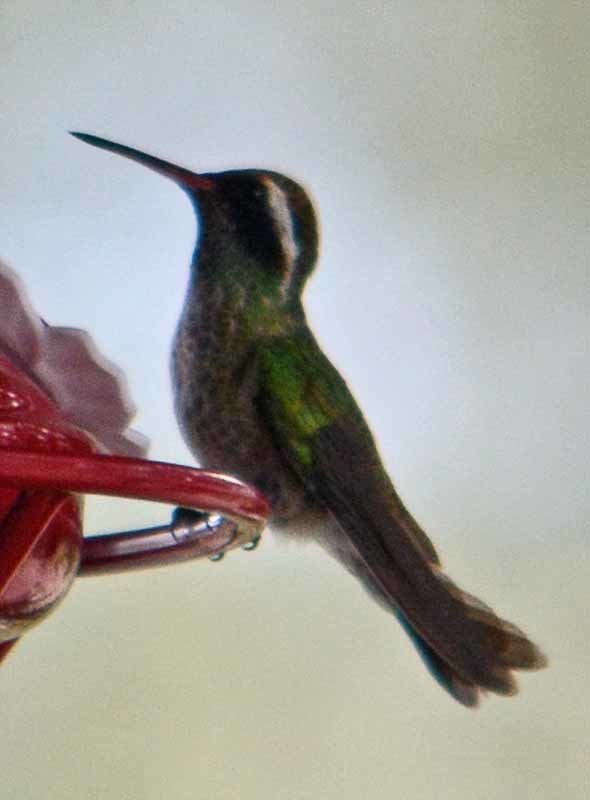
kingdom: Animalia
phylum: Chordata
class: Aves
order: Apodiformes
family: Trochilidae
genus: Basilinna
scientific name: Basilinna leucotis
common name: White-eared hummingbird
